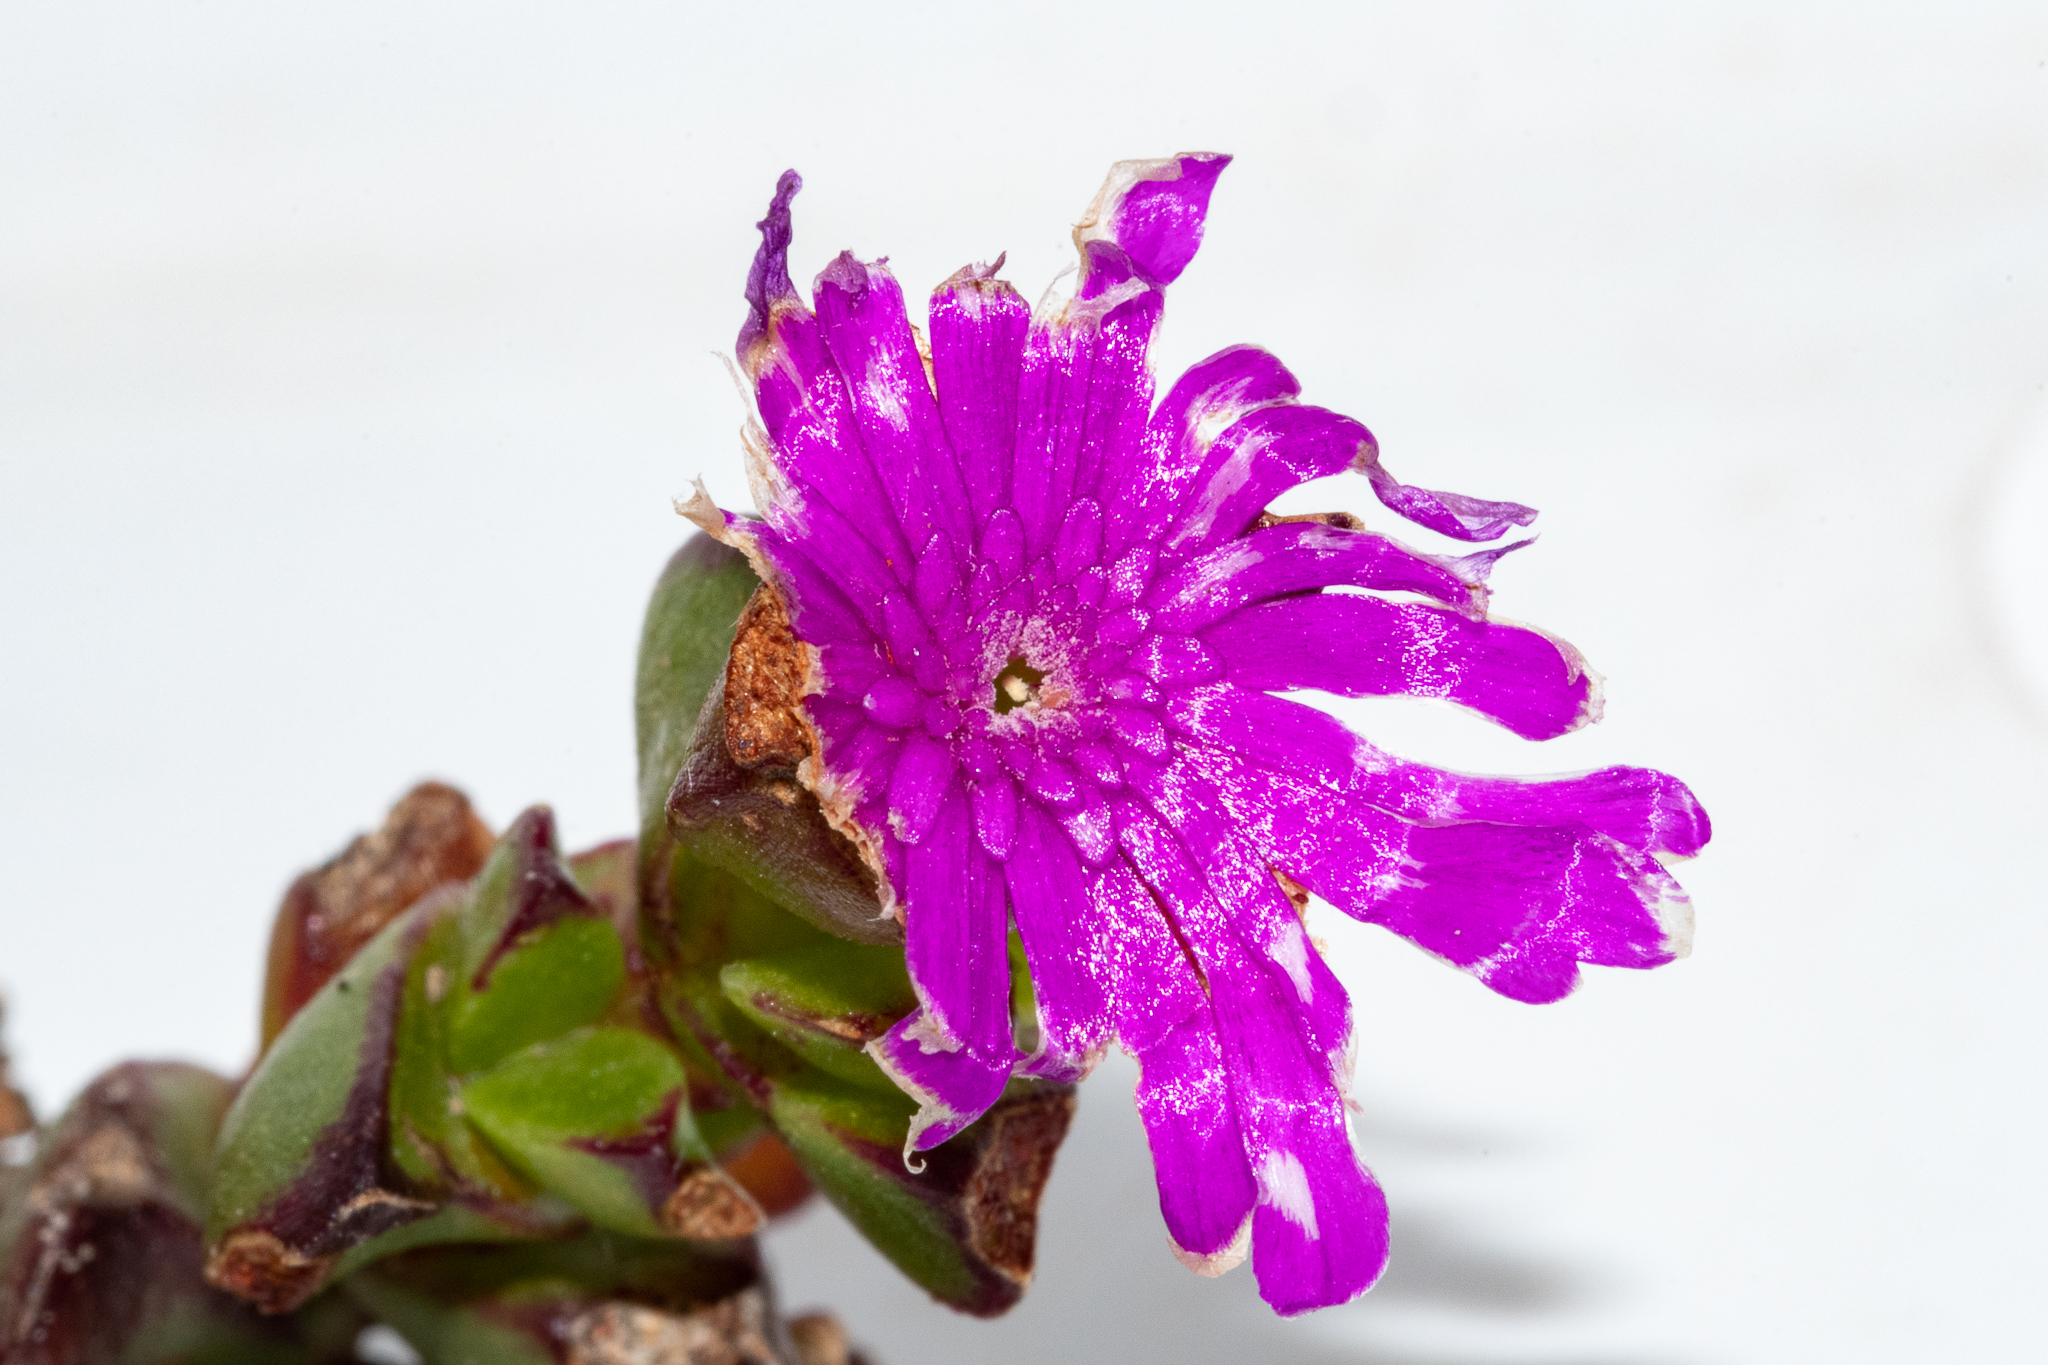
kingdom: Plantae
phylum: Tracheophyta
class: Magnoliopsida
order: Caryophyllales
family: Aizoaceae
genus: Erepsia
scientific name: Erepsia inclaudens
